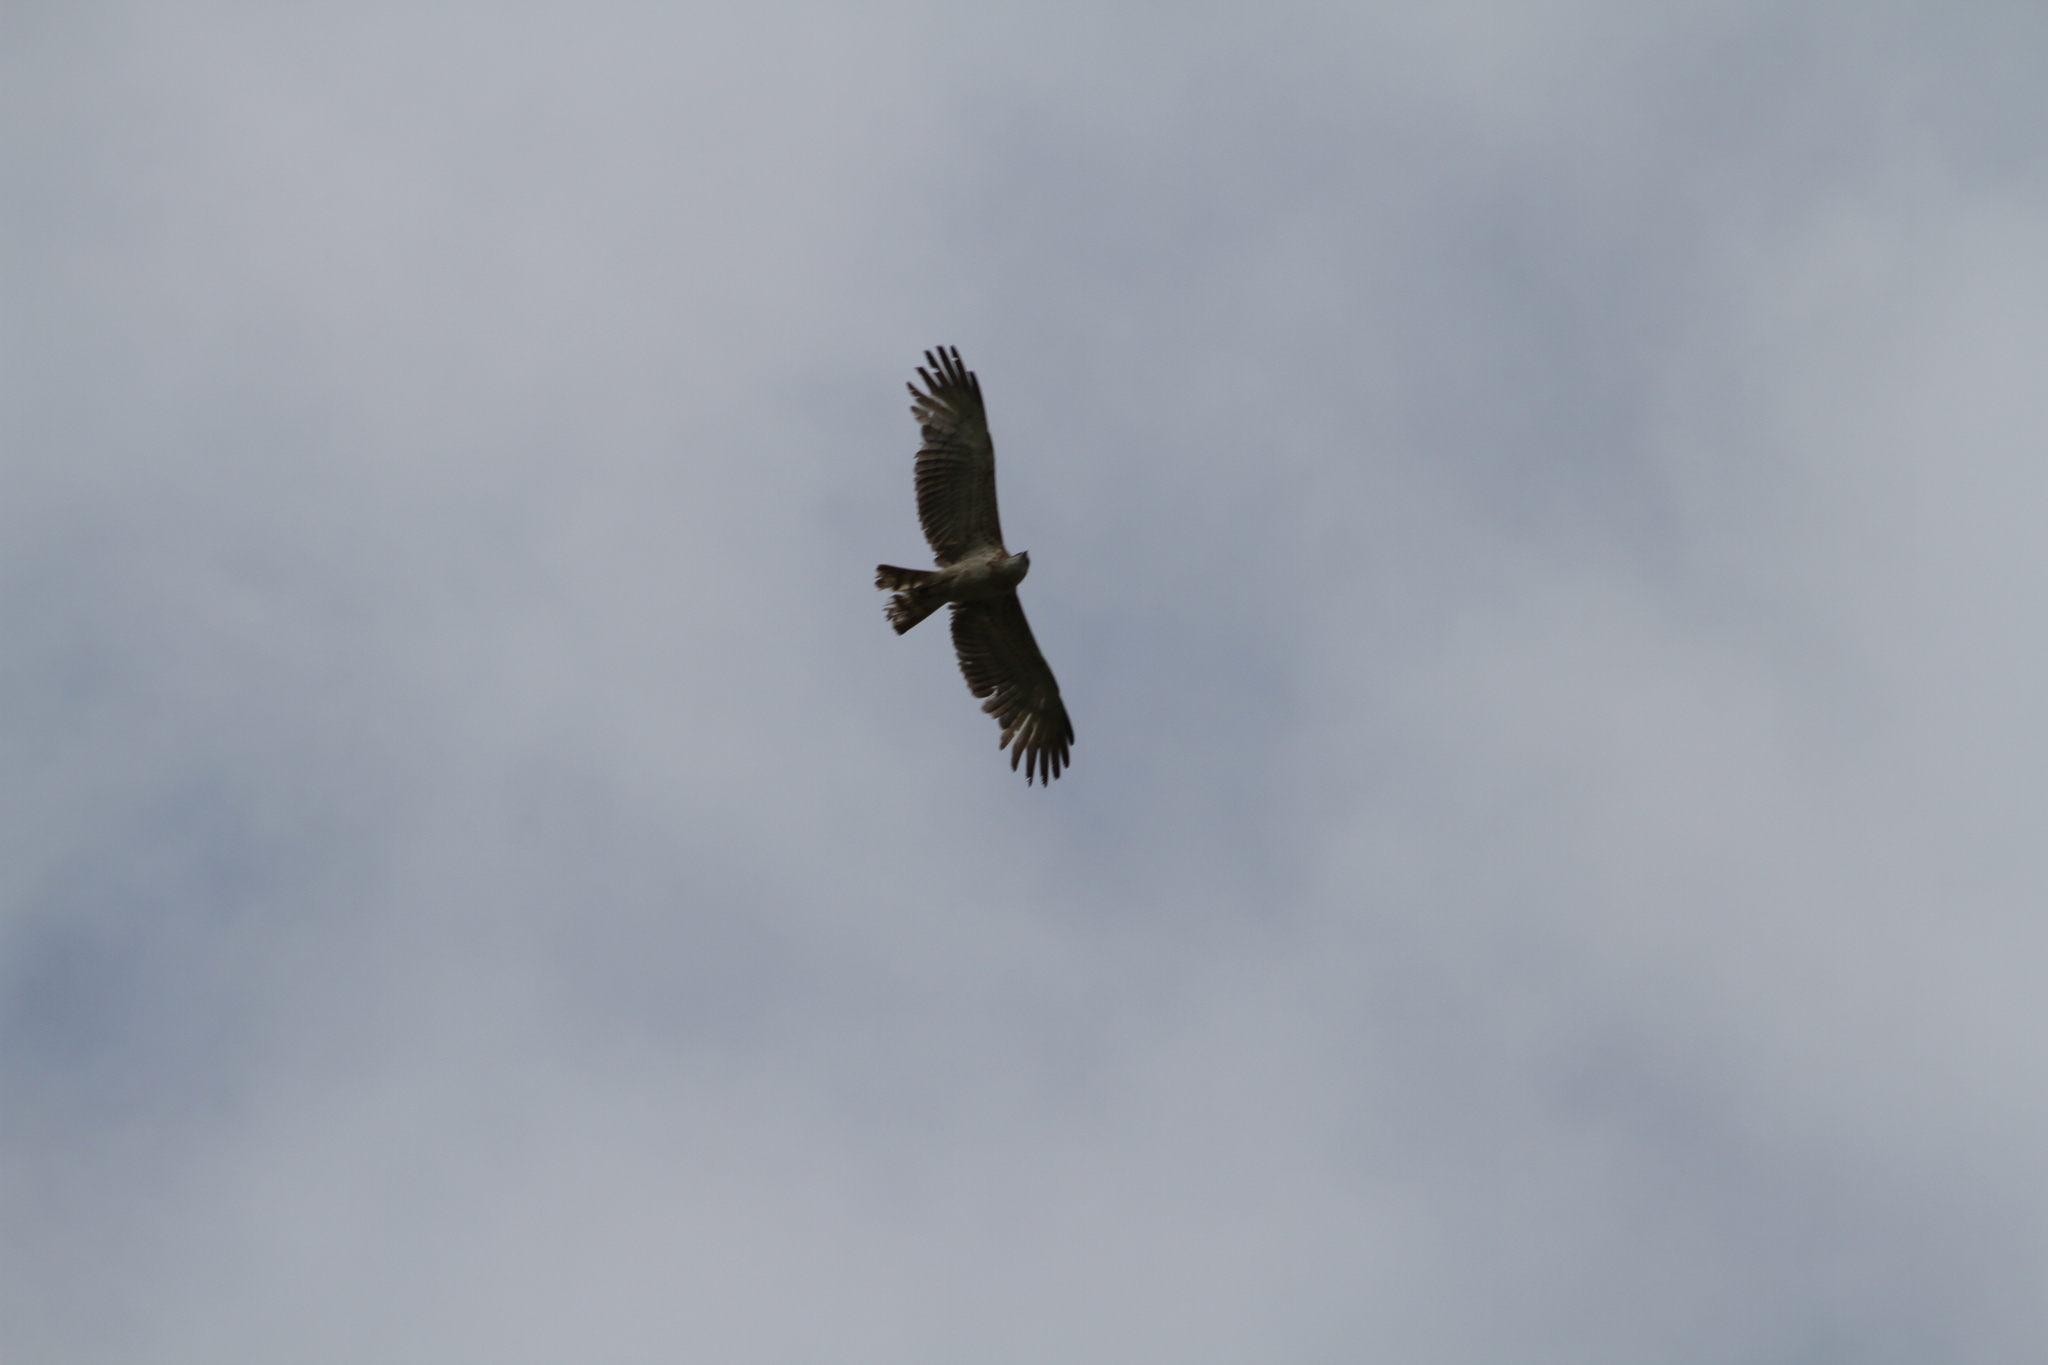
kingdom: Animalia
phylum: Chordata
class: Aves
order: Accipitriformes
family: Accipitridae
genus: Circaetus
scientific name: Circaetus gallicus
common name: Short-toed snake eagle
